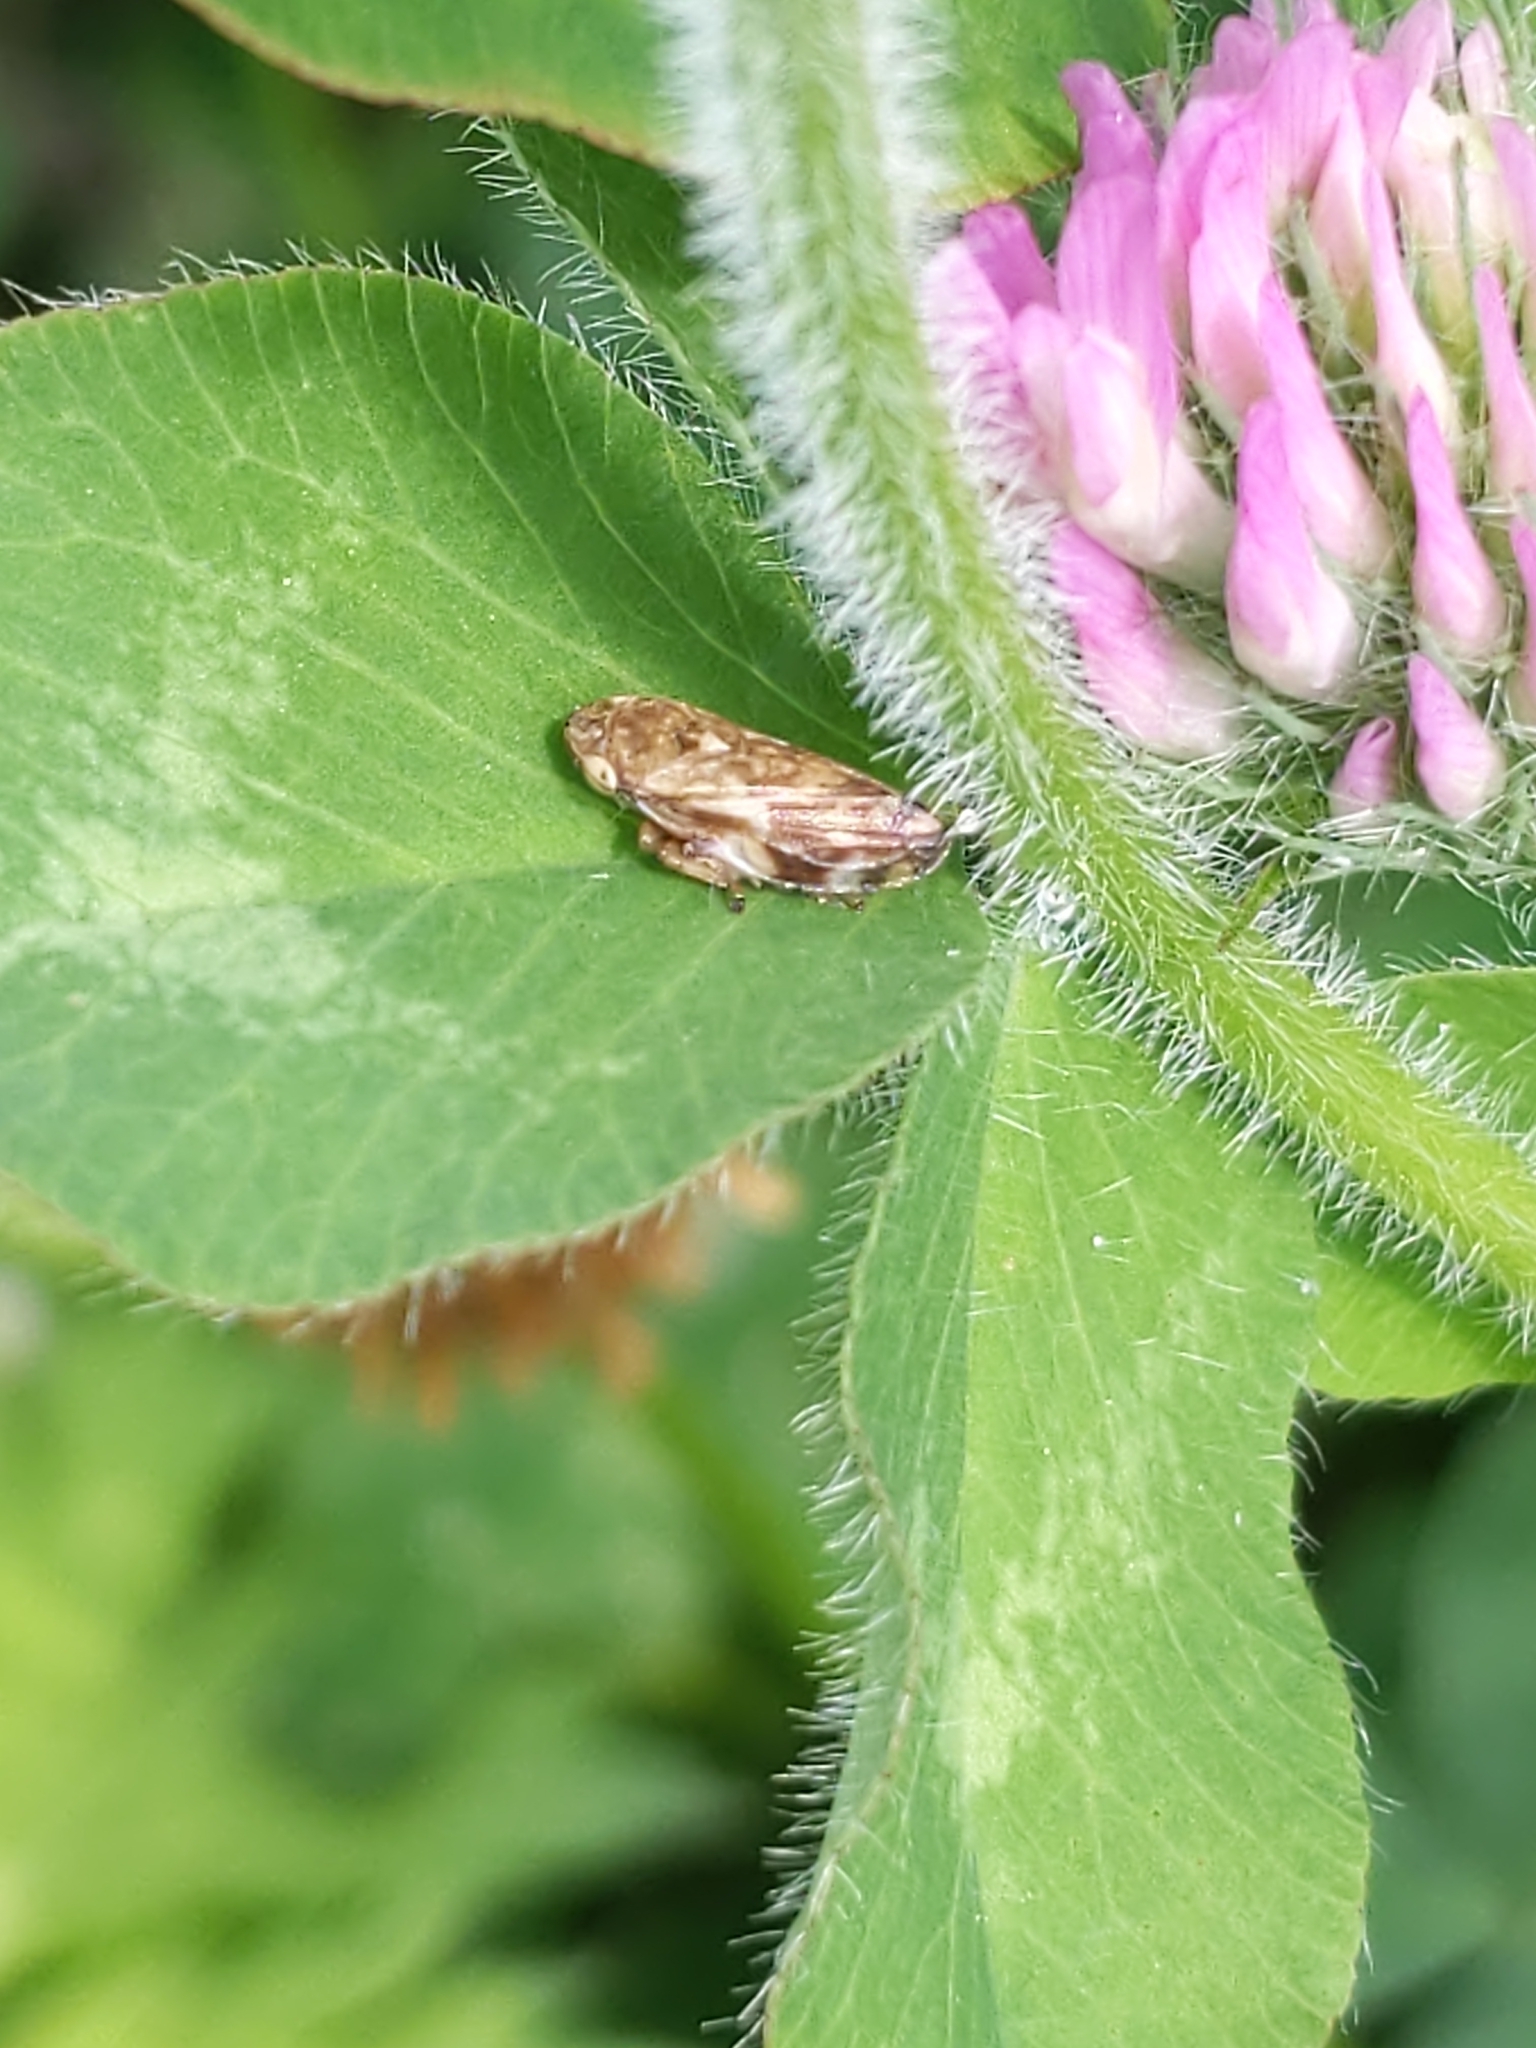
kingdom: Animalia
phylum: Arthropoda
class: Insecta
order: Hemiptera
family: Aphrophoridae
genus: Philaenus
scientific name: Philaenus spumarius
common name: Meadow spittlebug
